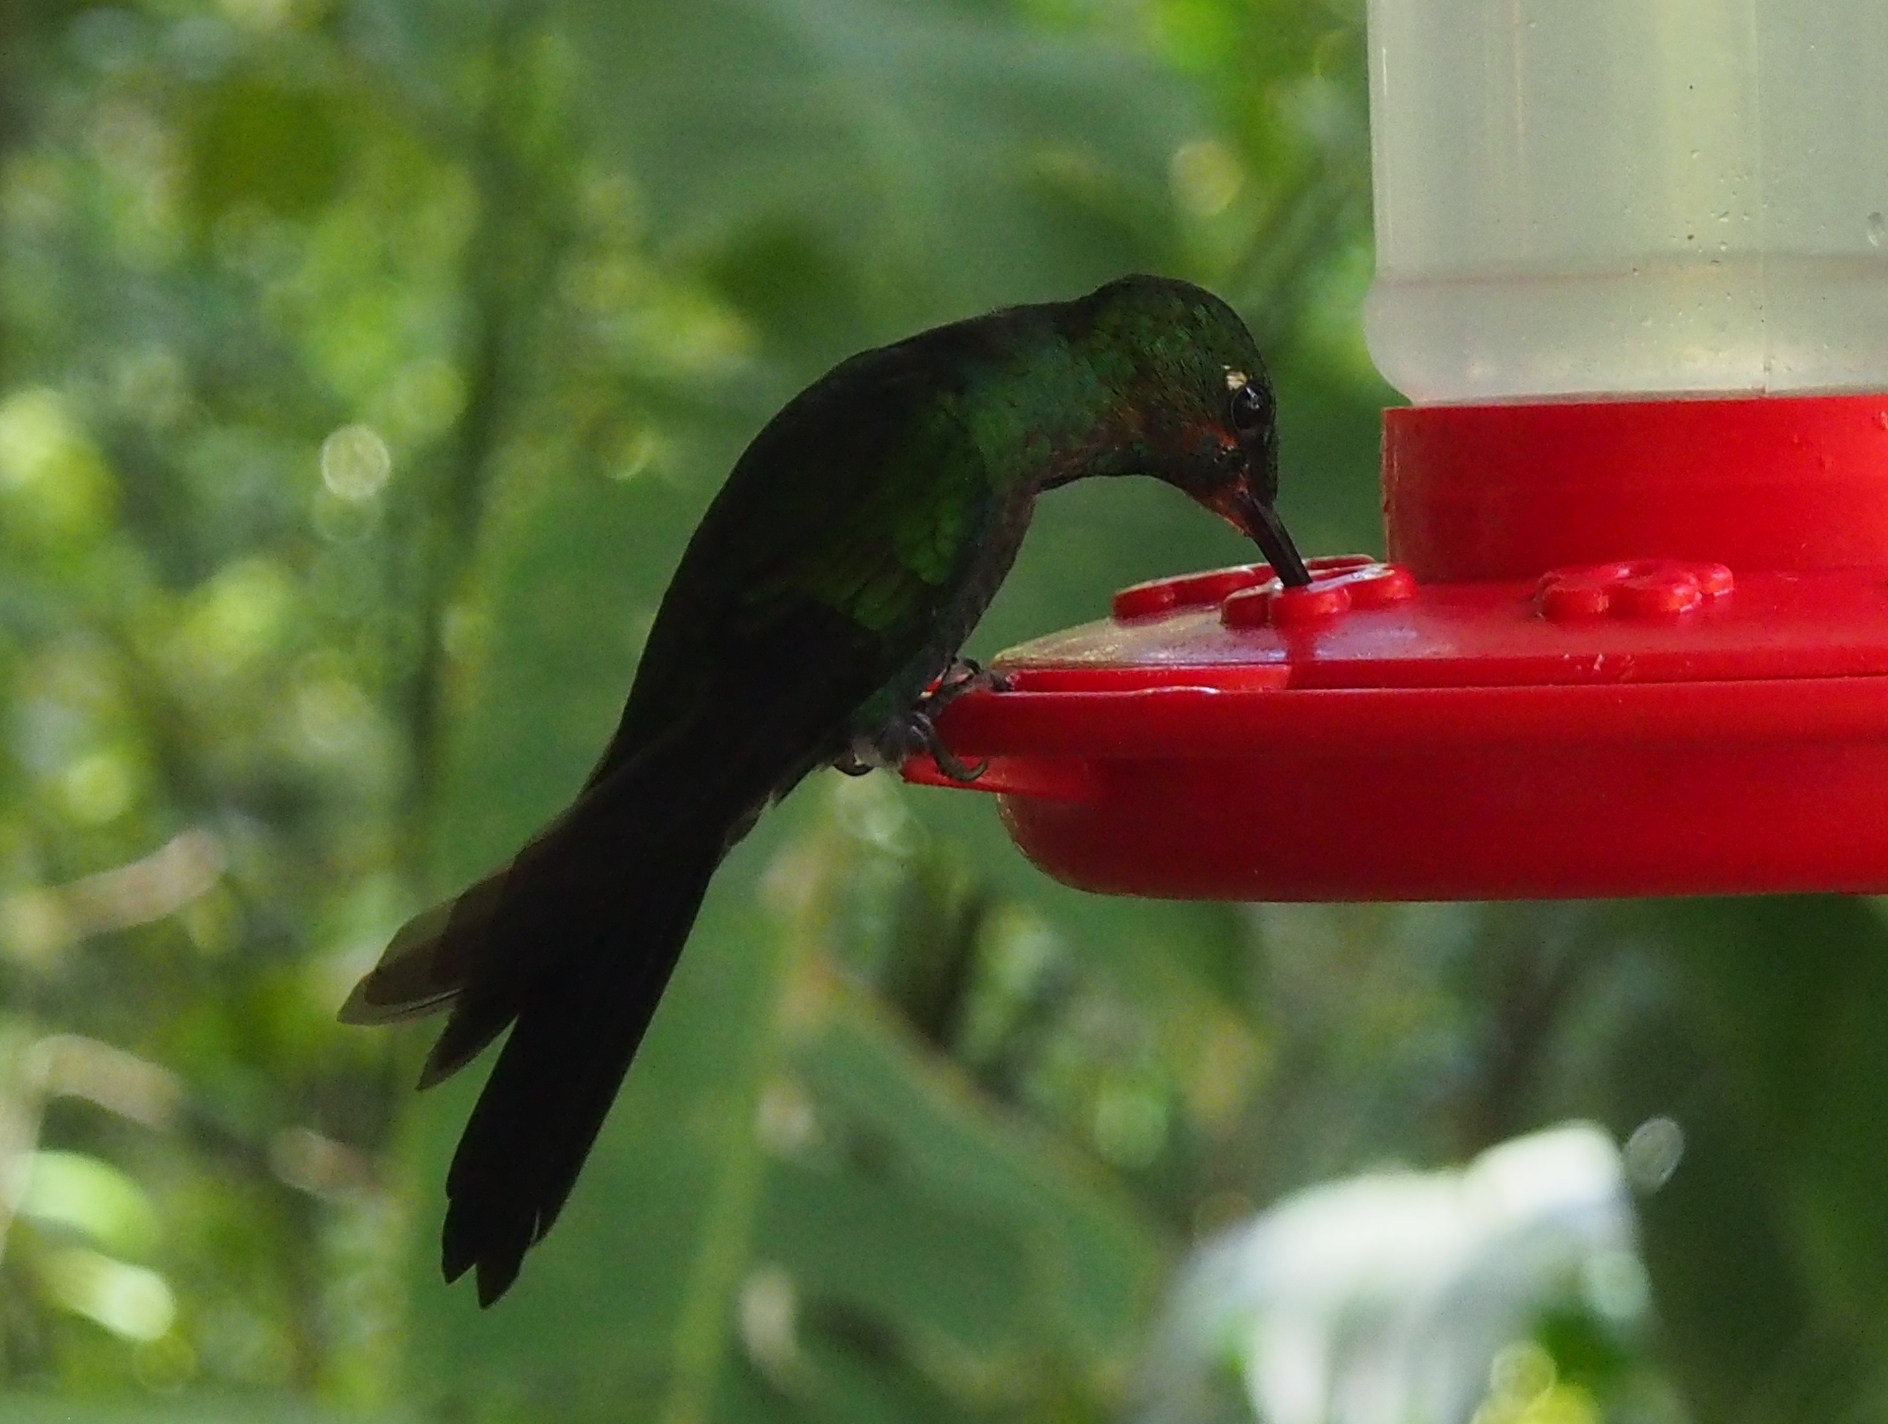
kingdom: Animalia
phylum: Chordata
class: Aves
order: Apodiformes
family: Trochilidae
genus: Heliodoxa
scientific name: Heliodoxa jacula
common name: Green-crowned brilliant
